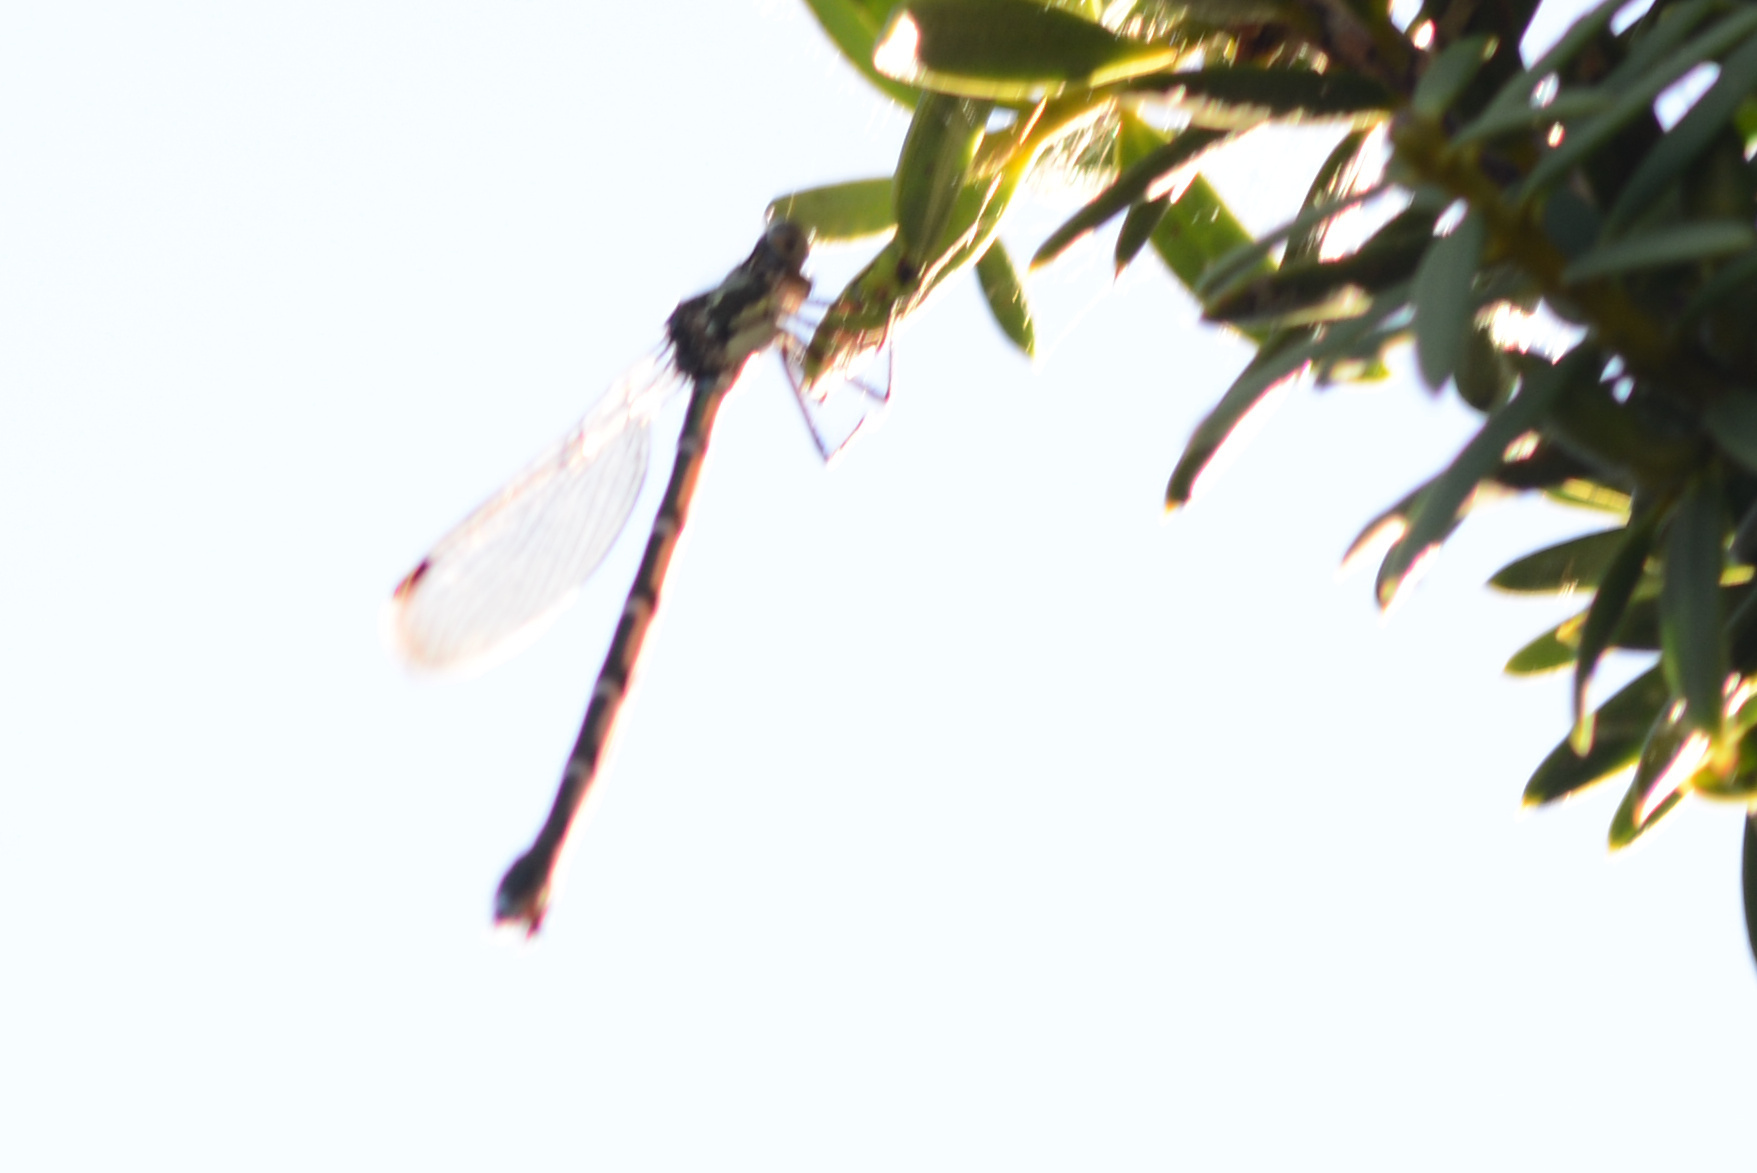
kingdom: Animalia
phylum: Arthropoda
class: Insecta
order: Odonata
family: Lestidae
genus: Austrolestes
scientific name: Austrolestes colensonis
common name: Blue damselfly
